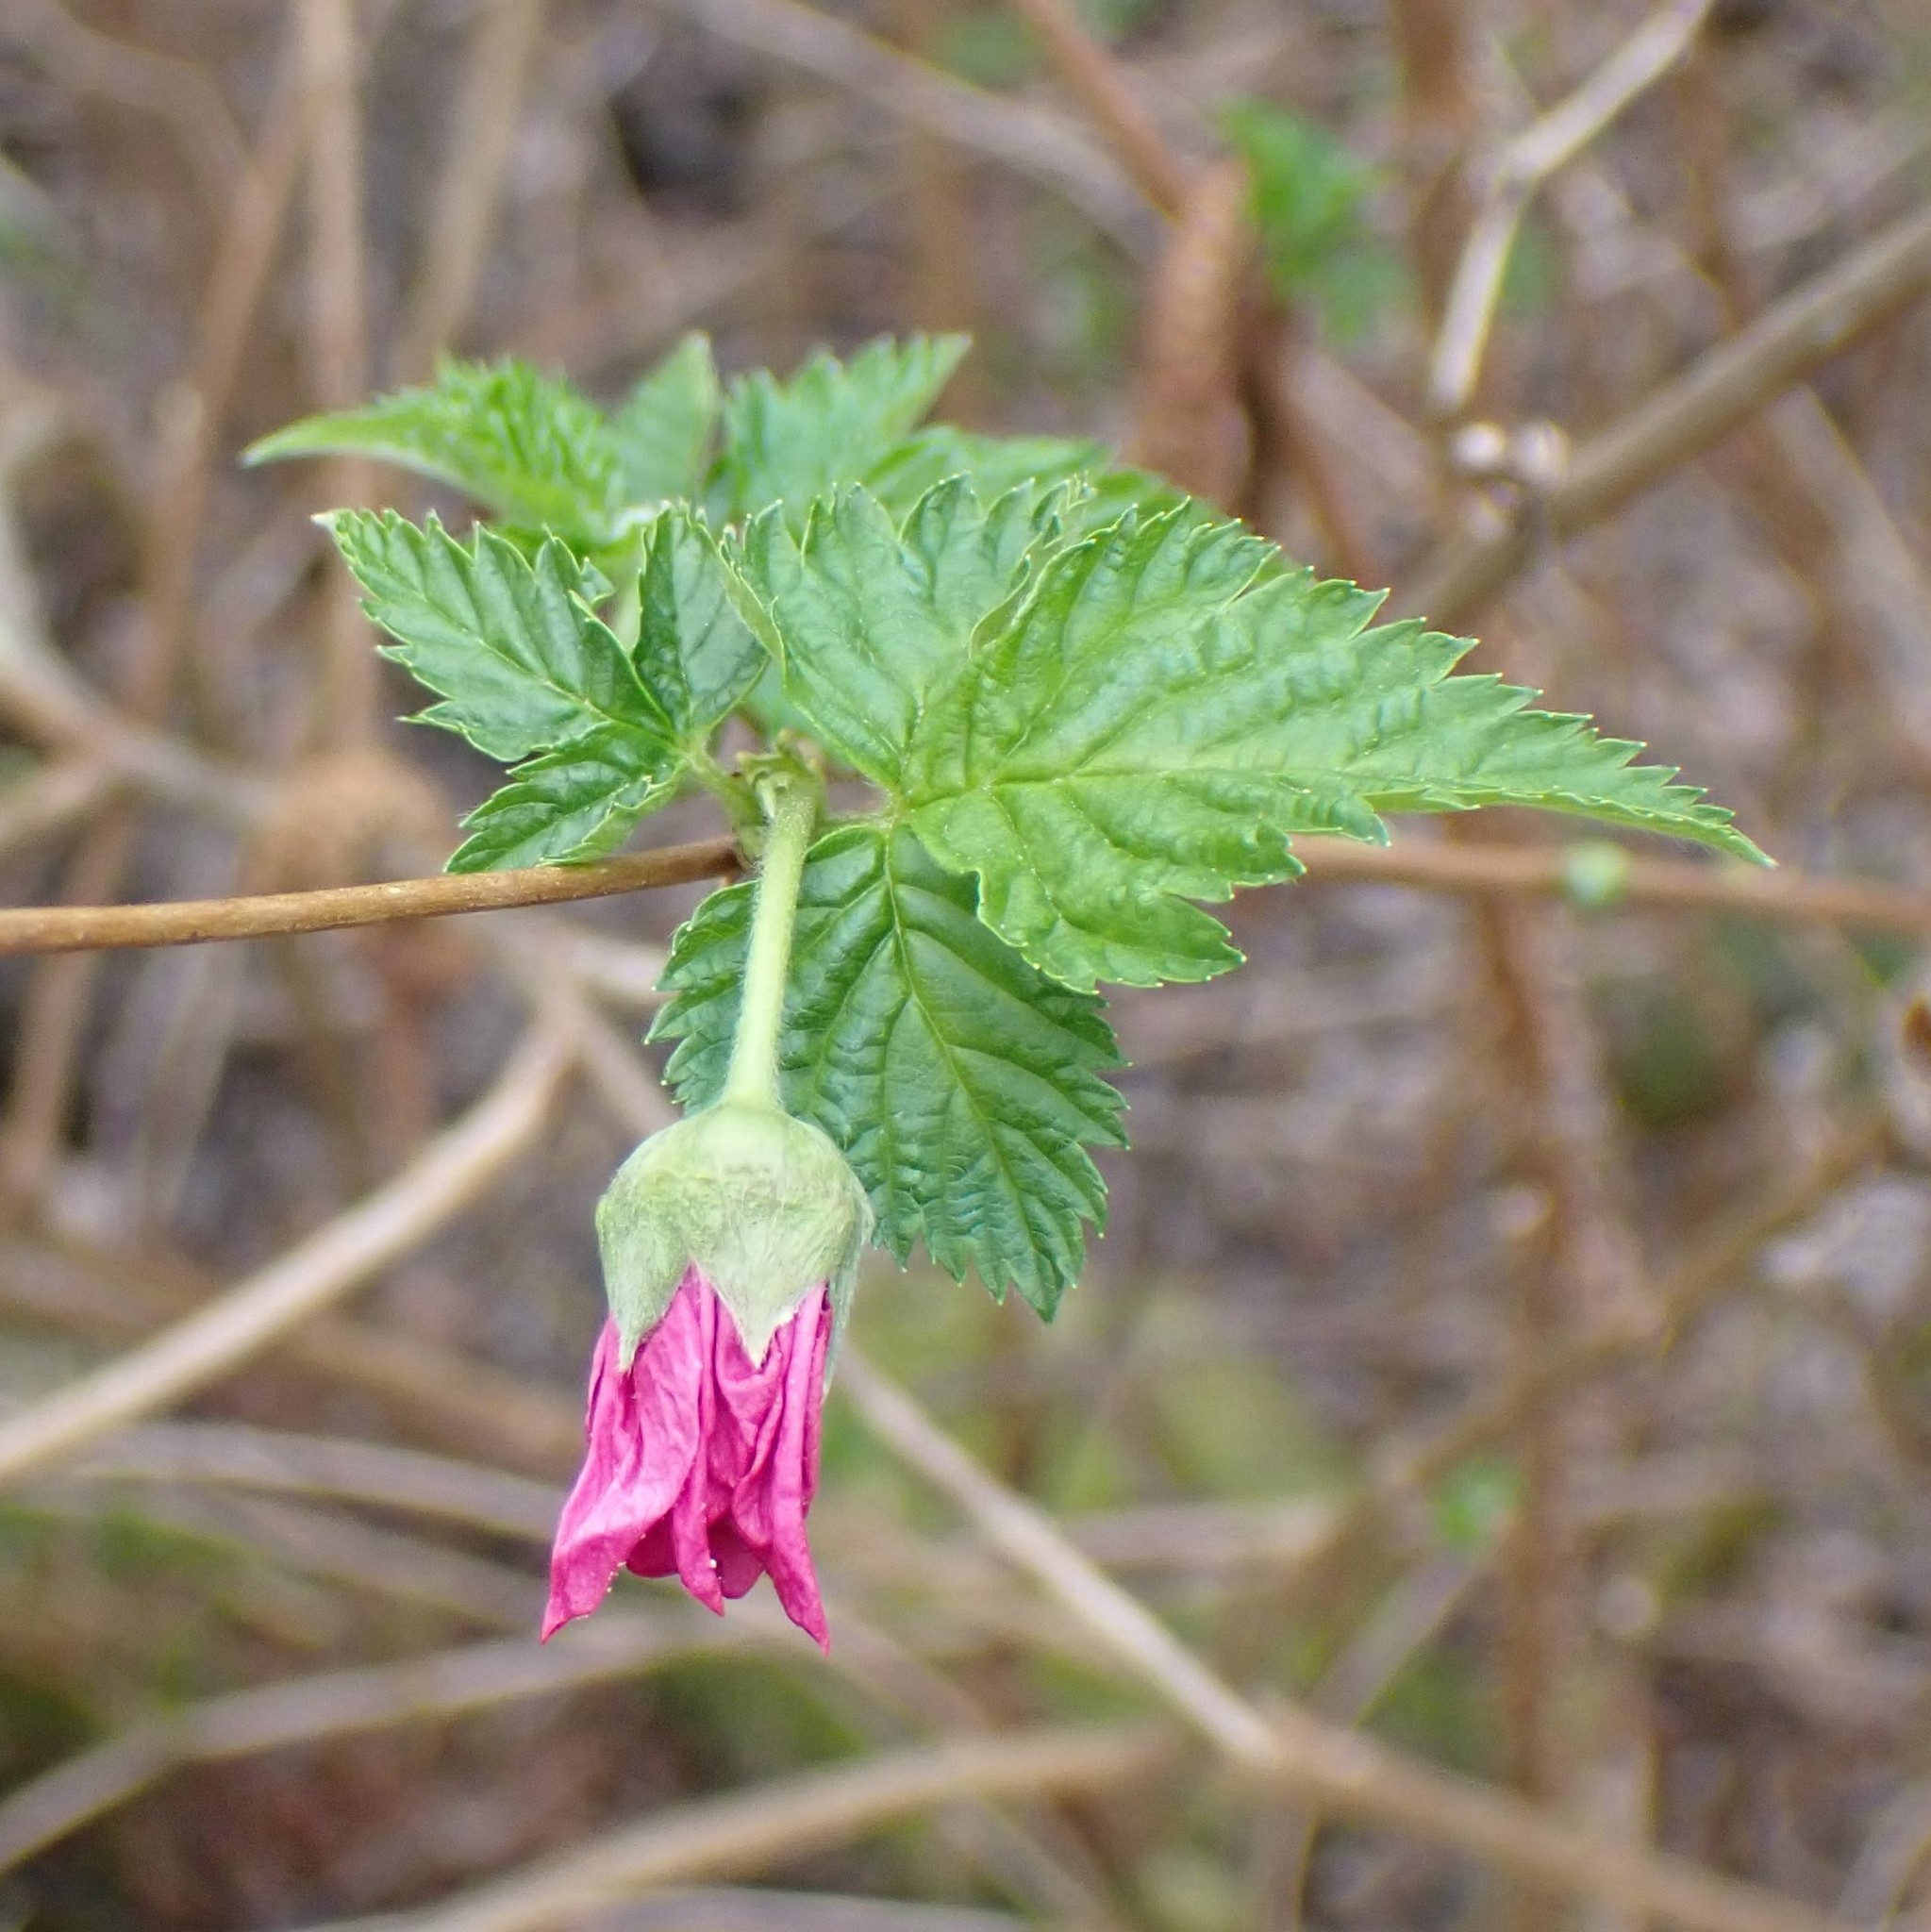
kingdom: Plantae
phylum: Tracheophyta
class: Magnoliopsida
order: Rosales
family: Rosaceae
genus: Rubus
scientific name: Rubus spectabilis
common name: Salmonberry
